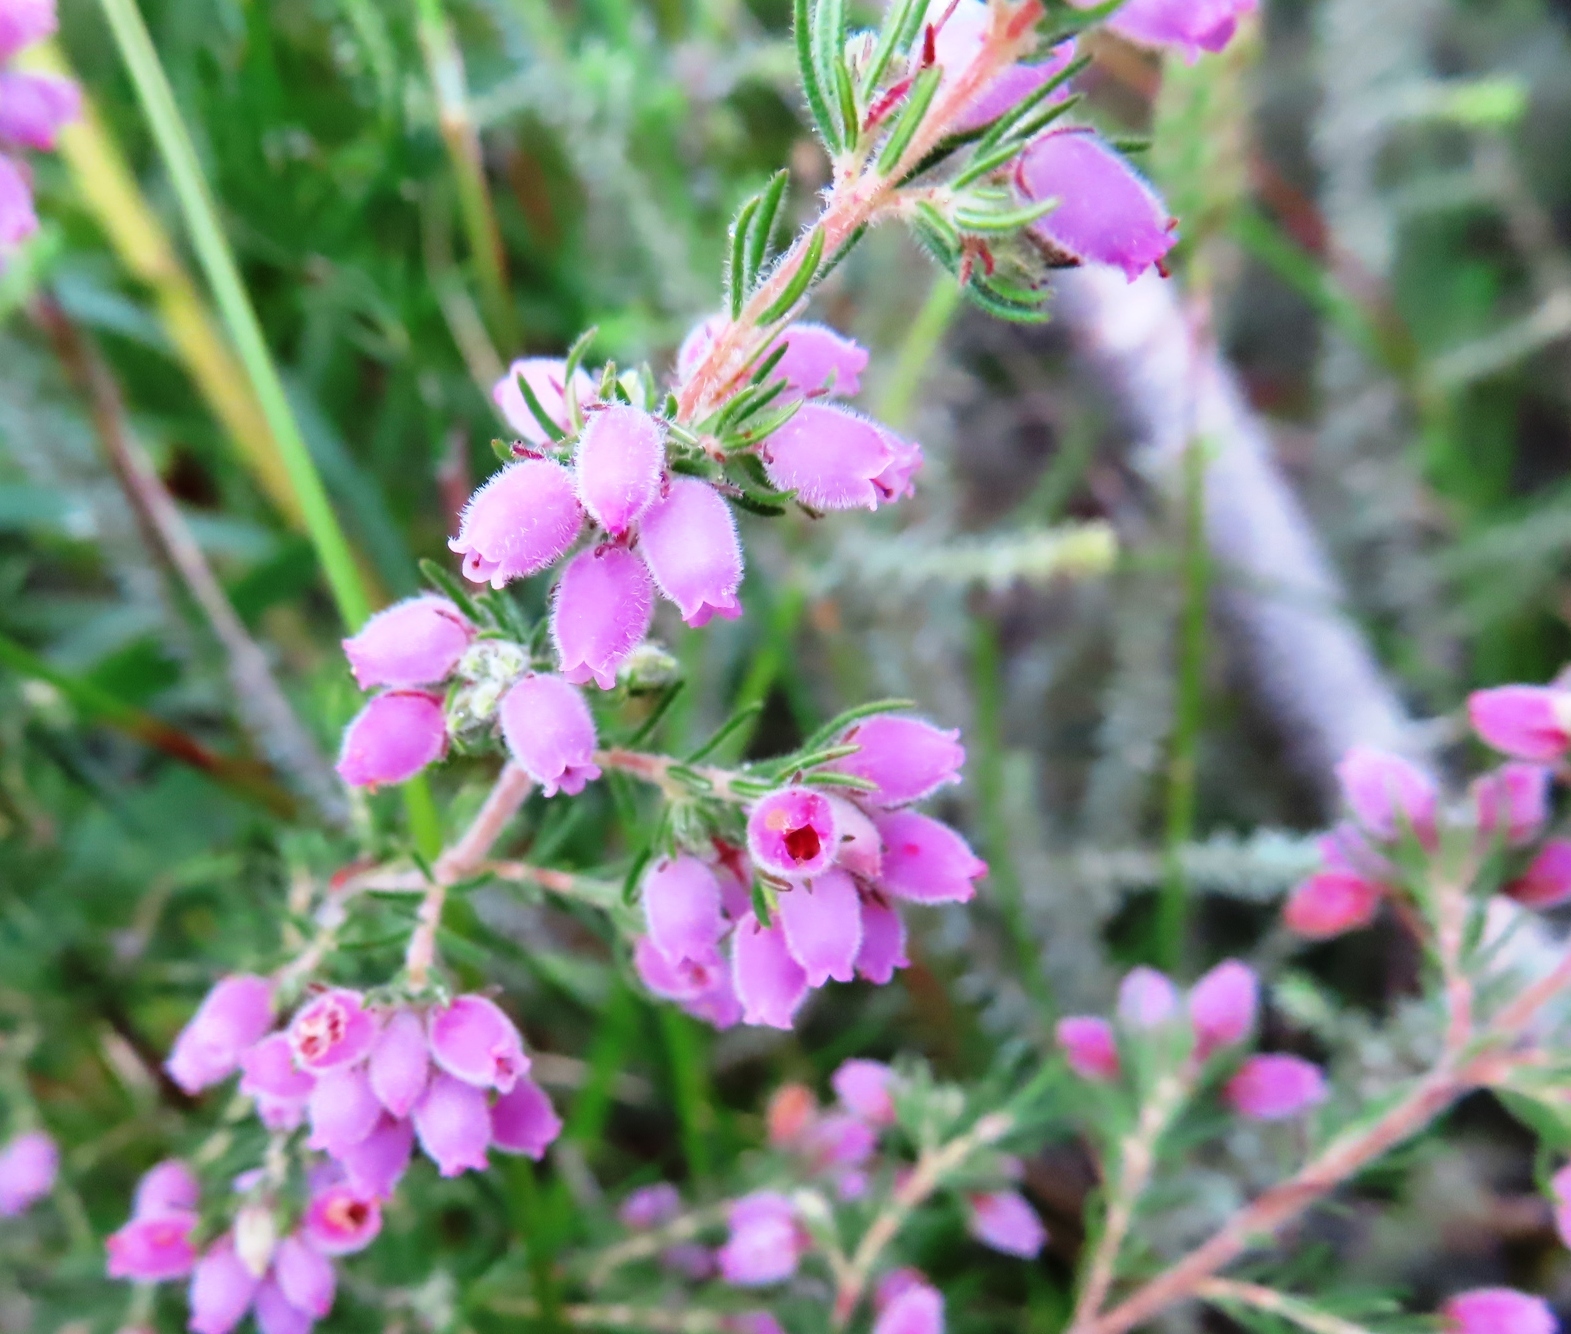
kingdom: Plantae
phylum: Tracheophyta
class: Magnoliopsida
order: Ericales
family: Ericaceae
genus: Erica
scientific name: Erica hirtiflora
